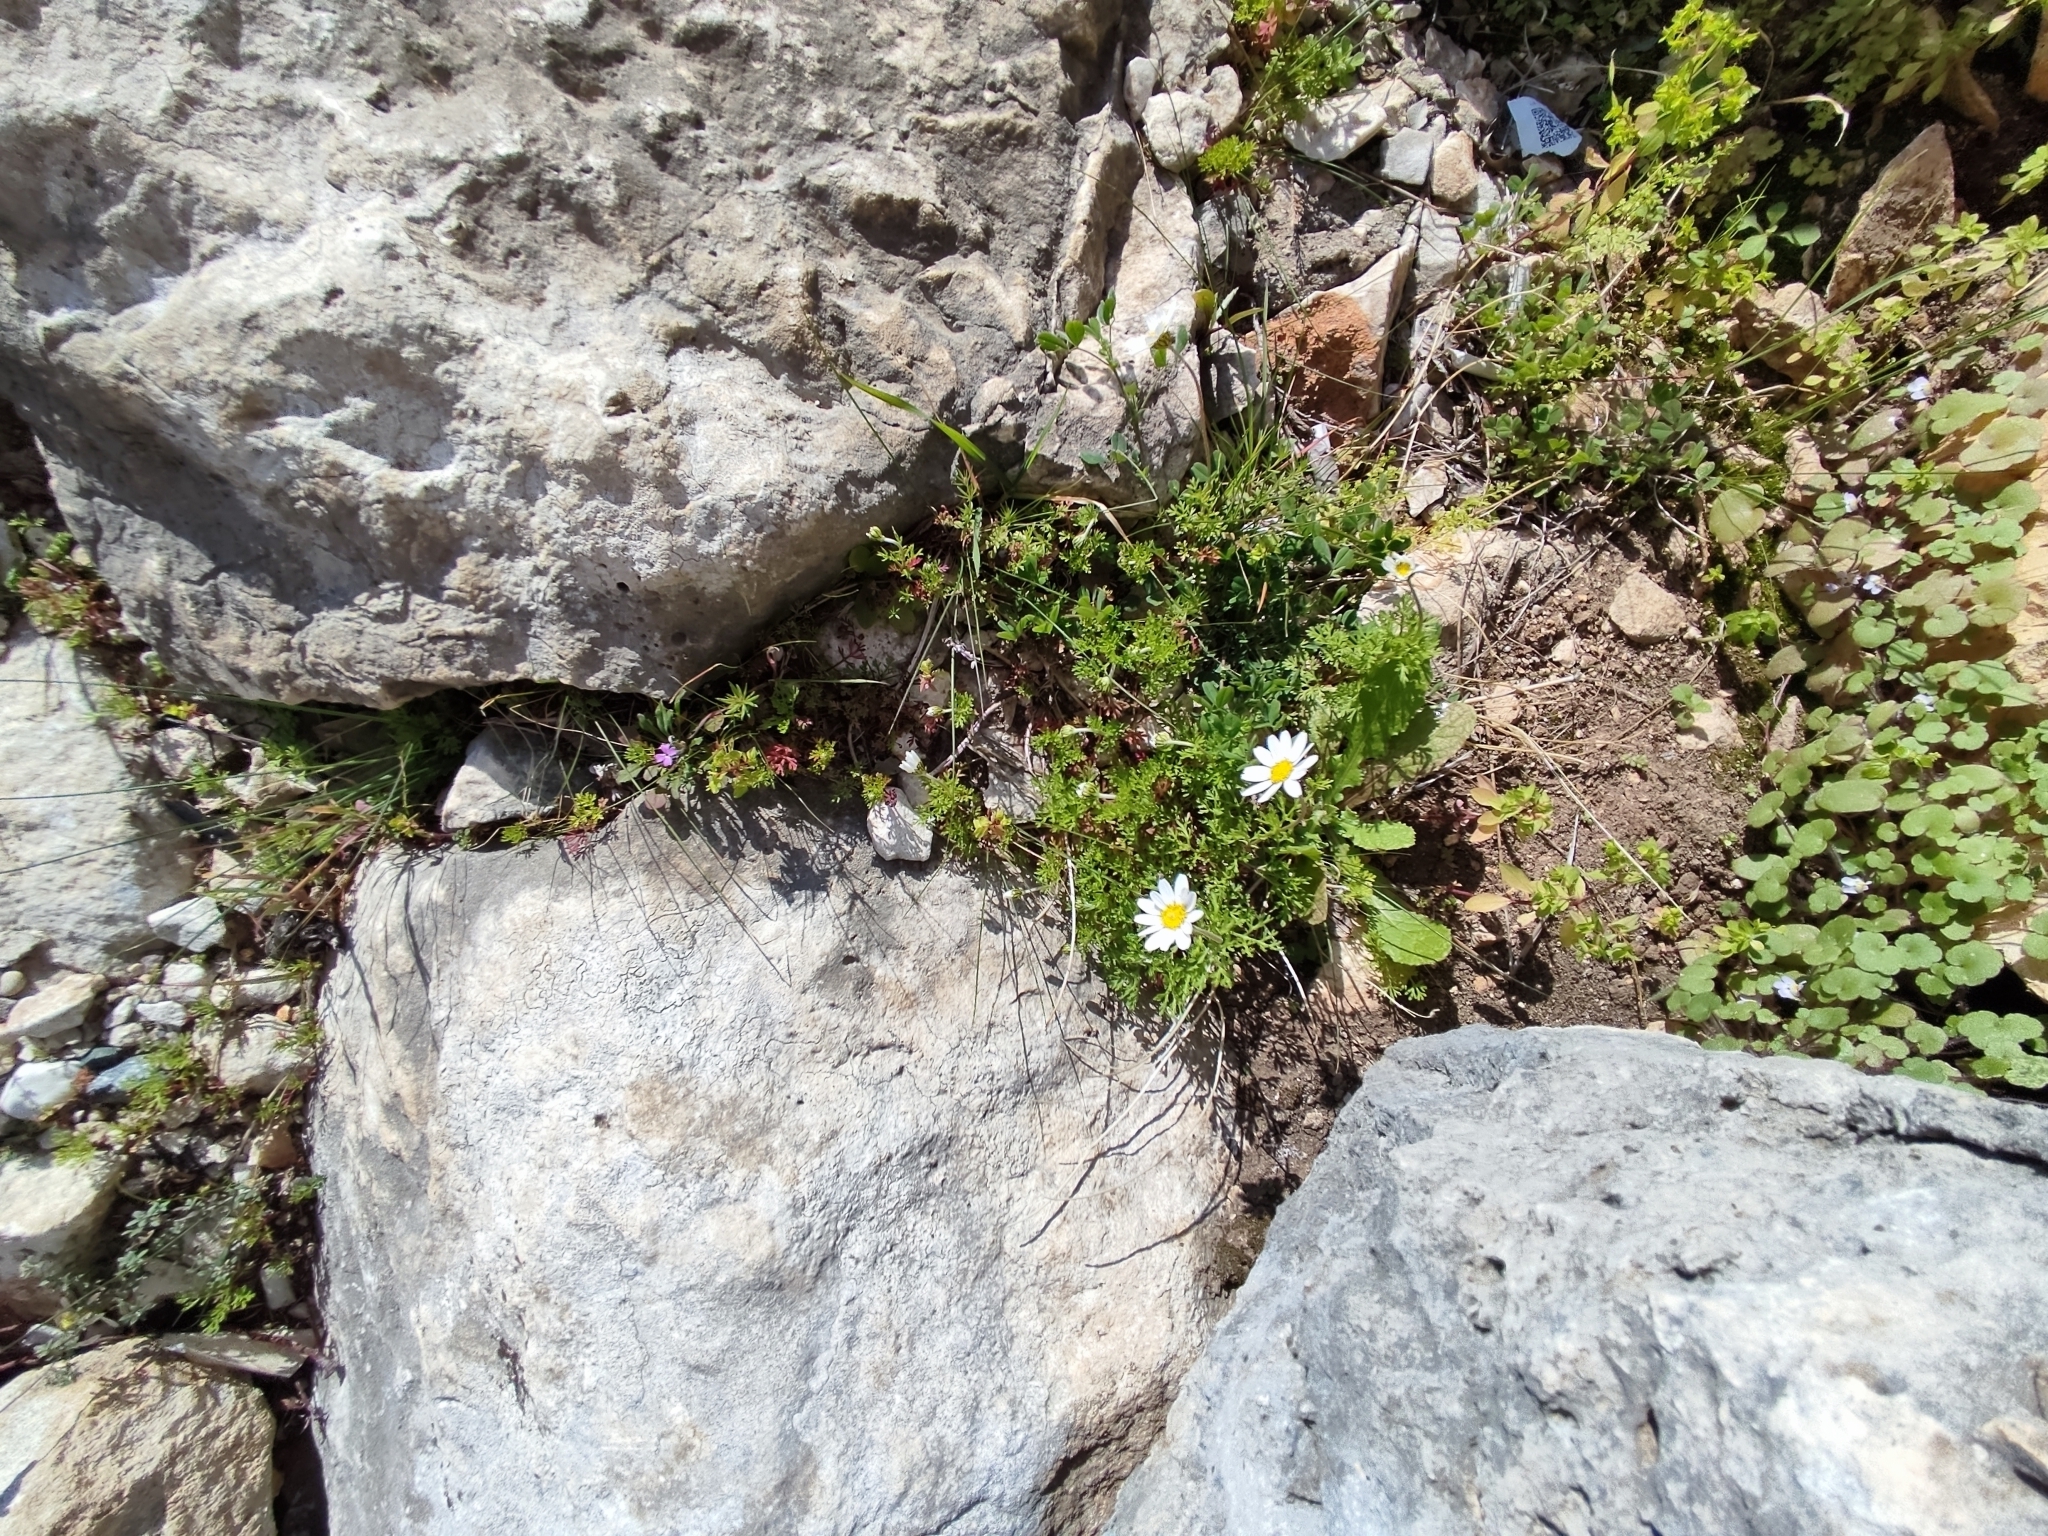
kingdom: Plantae
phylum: Tracheophyta
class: Magnoliopsida
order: Asterales
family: Asteraceae
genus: Anthemis
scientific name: Anthemis chia
